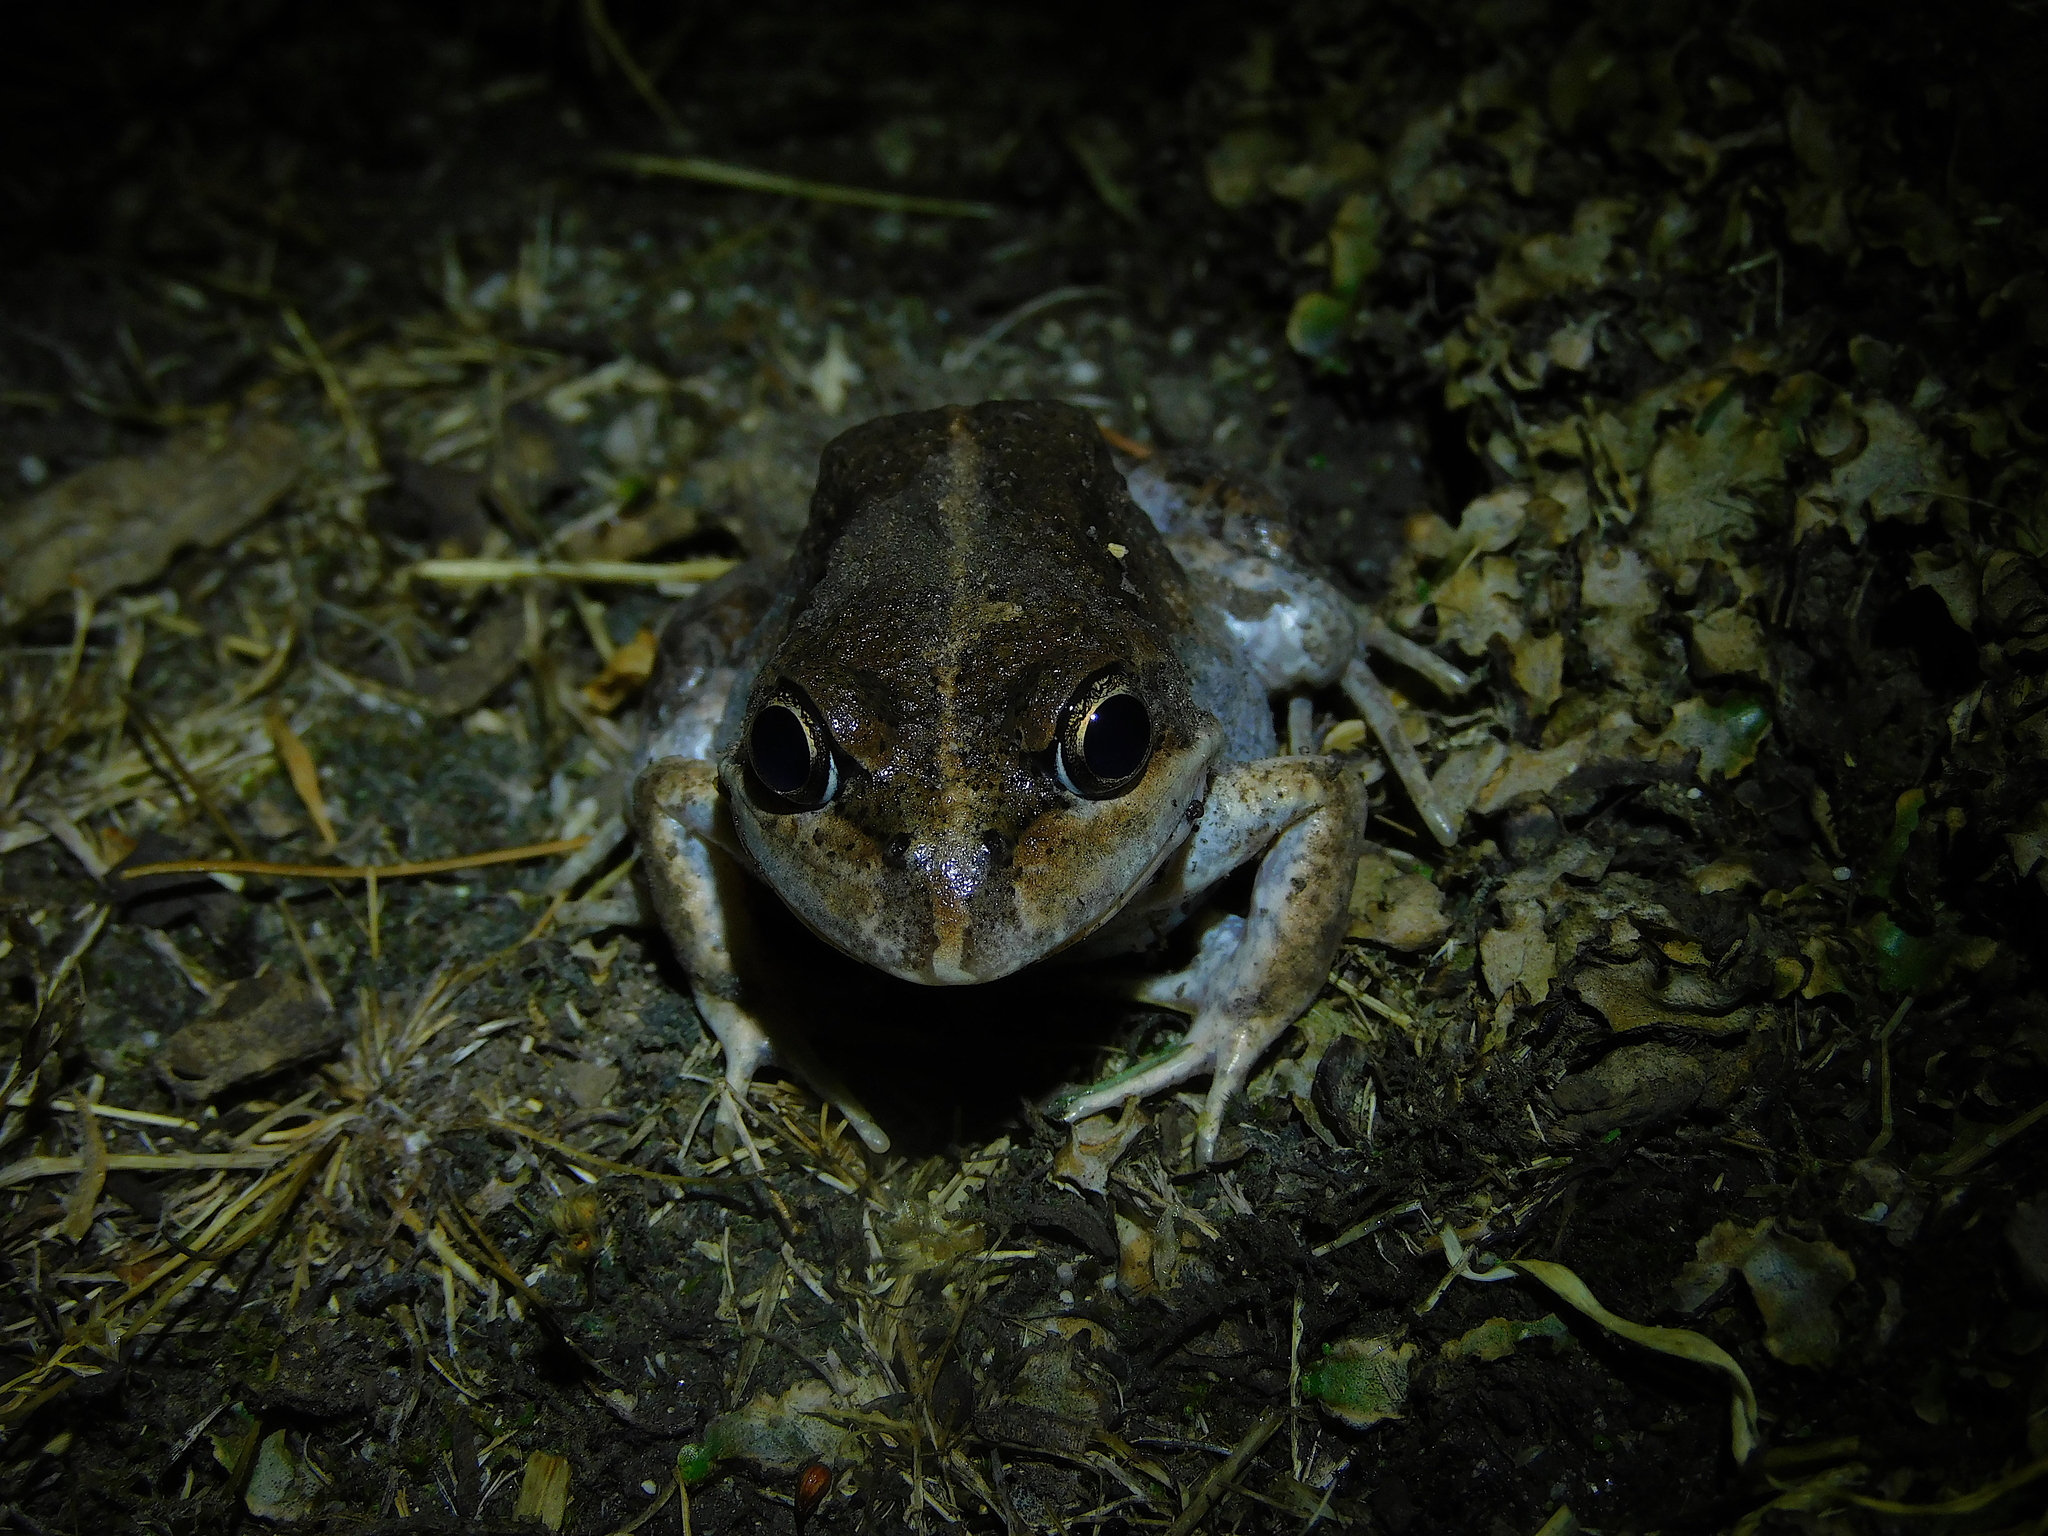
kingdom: Animalia
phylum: Chordata
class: Amphibia
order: Anura
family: Limnodynastidae
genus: Limnodynastes
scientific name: Limnodynastes dumerilii
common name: Banjo frog
